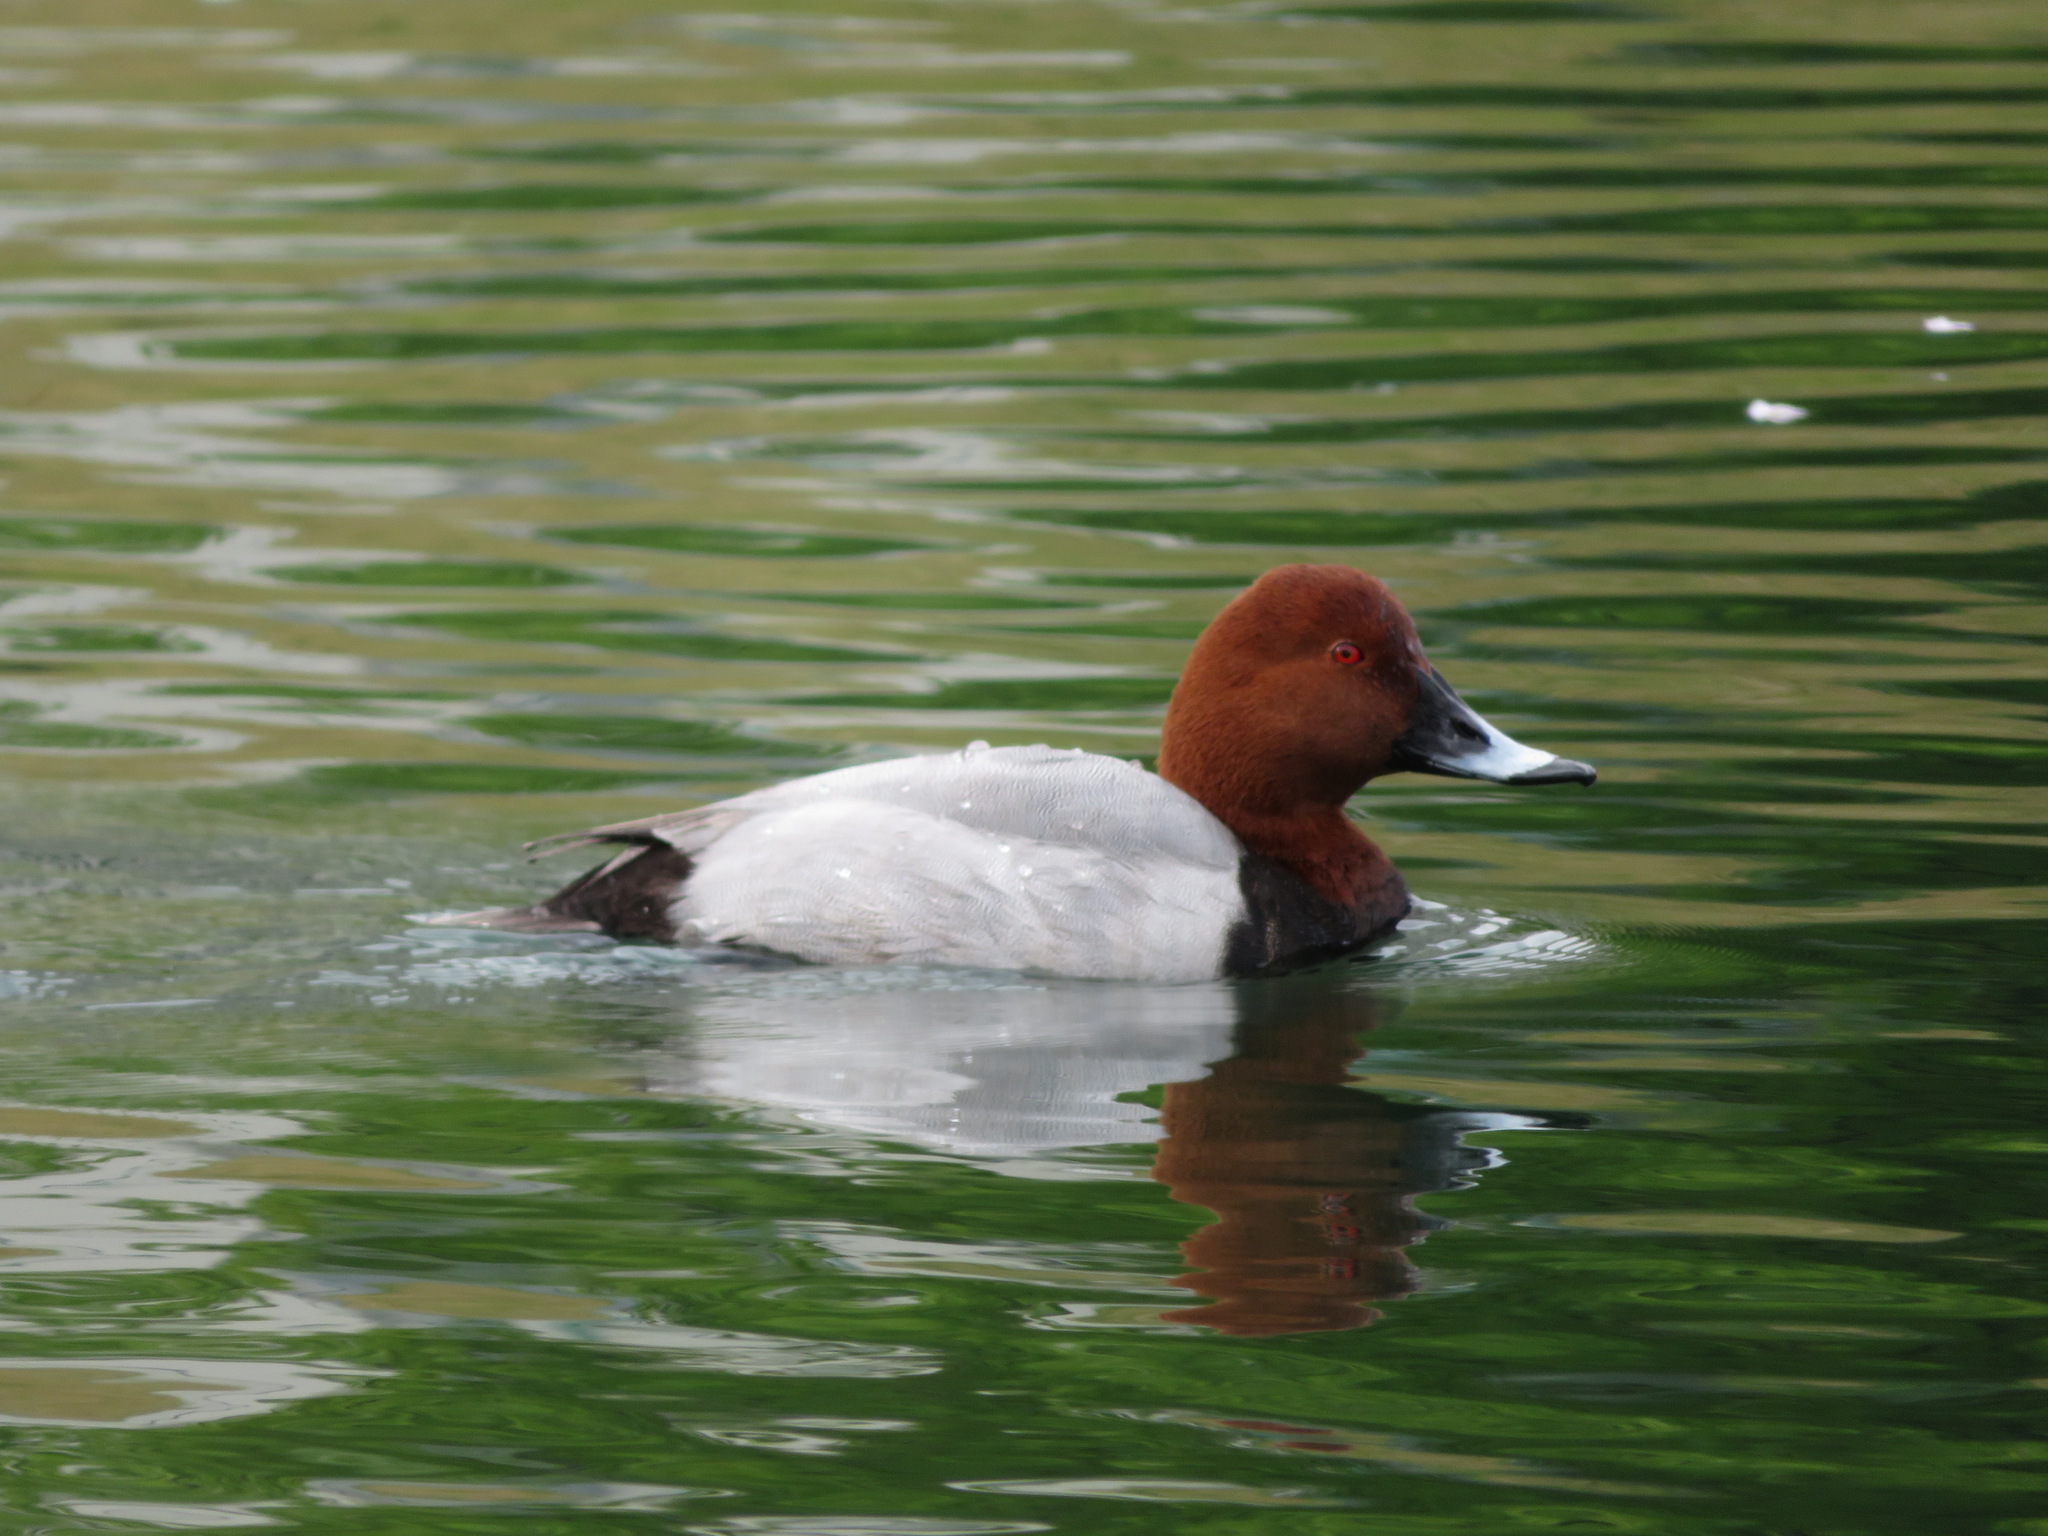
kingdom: Animalia
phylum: Chordata
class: Aves
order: Anseriformes
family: Anatidae
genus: Aythya
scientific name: Aythya ferina
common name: Common pochard
